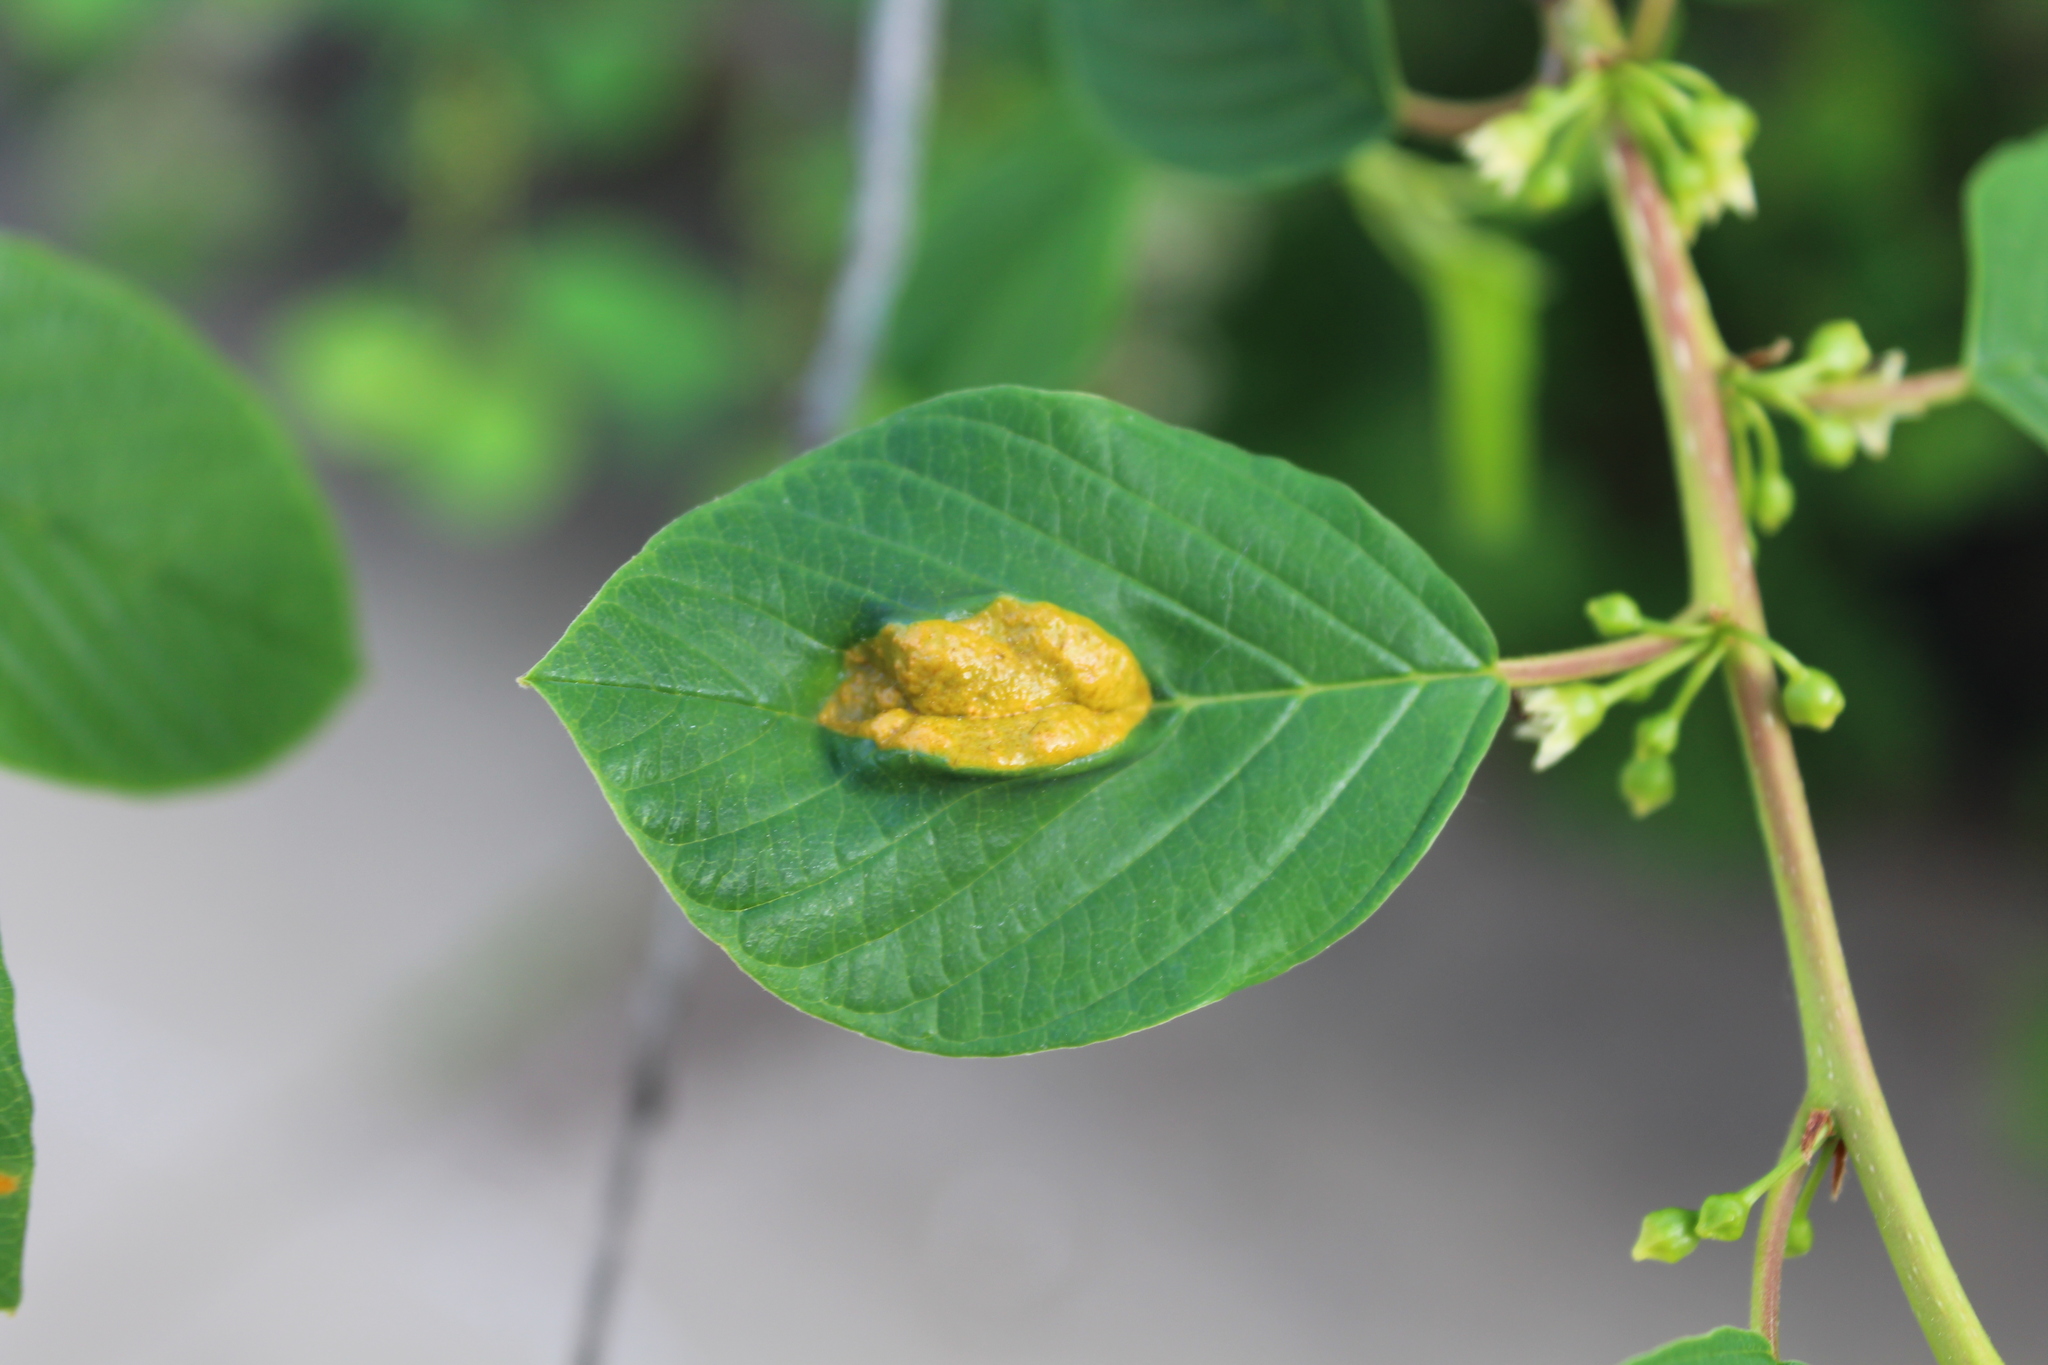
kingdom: Fungi
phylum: Basidiomycota
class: Pucciniomycetes
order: Pucciniales
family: Pucciniaceae
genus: Puccinia
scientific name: Puccinia coronata
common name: Crown rust
